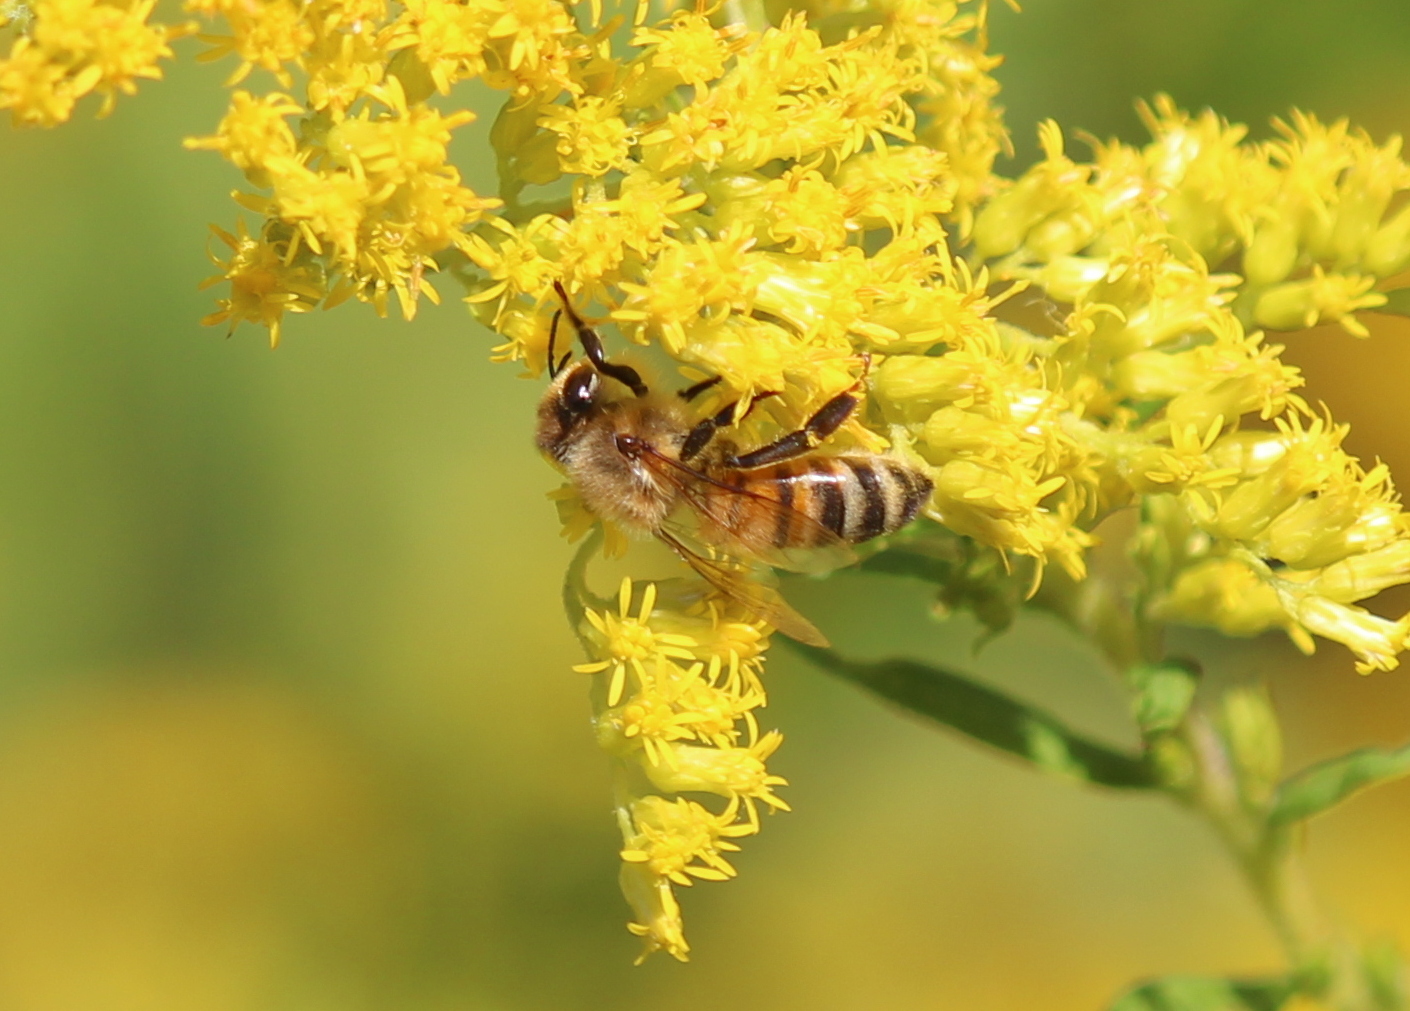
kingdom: Animalia
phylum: Arthropoda
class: Insecta
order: Hymenoptera
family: Apidae
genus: Apis
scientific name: Apis mellifera
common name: Honey bee
